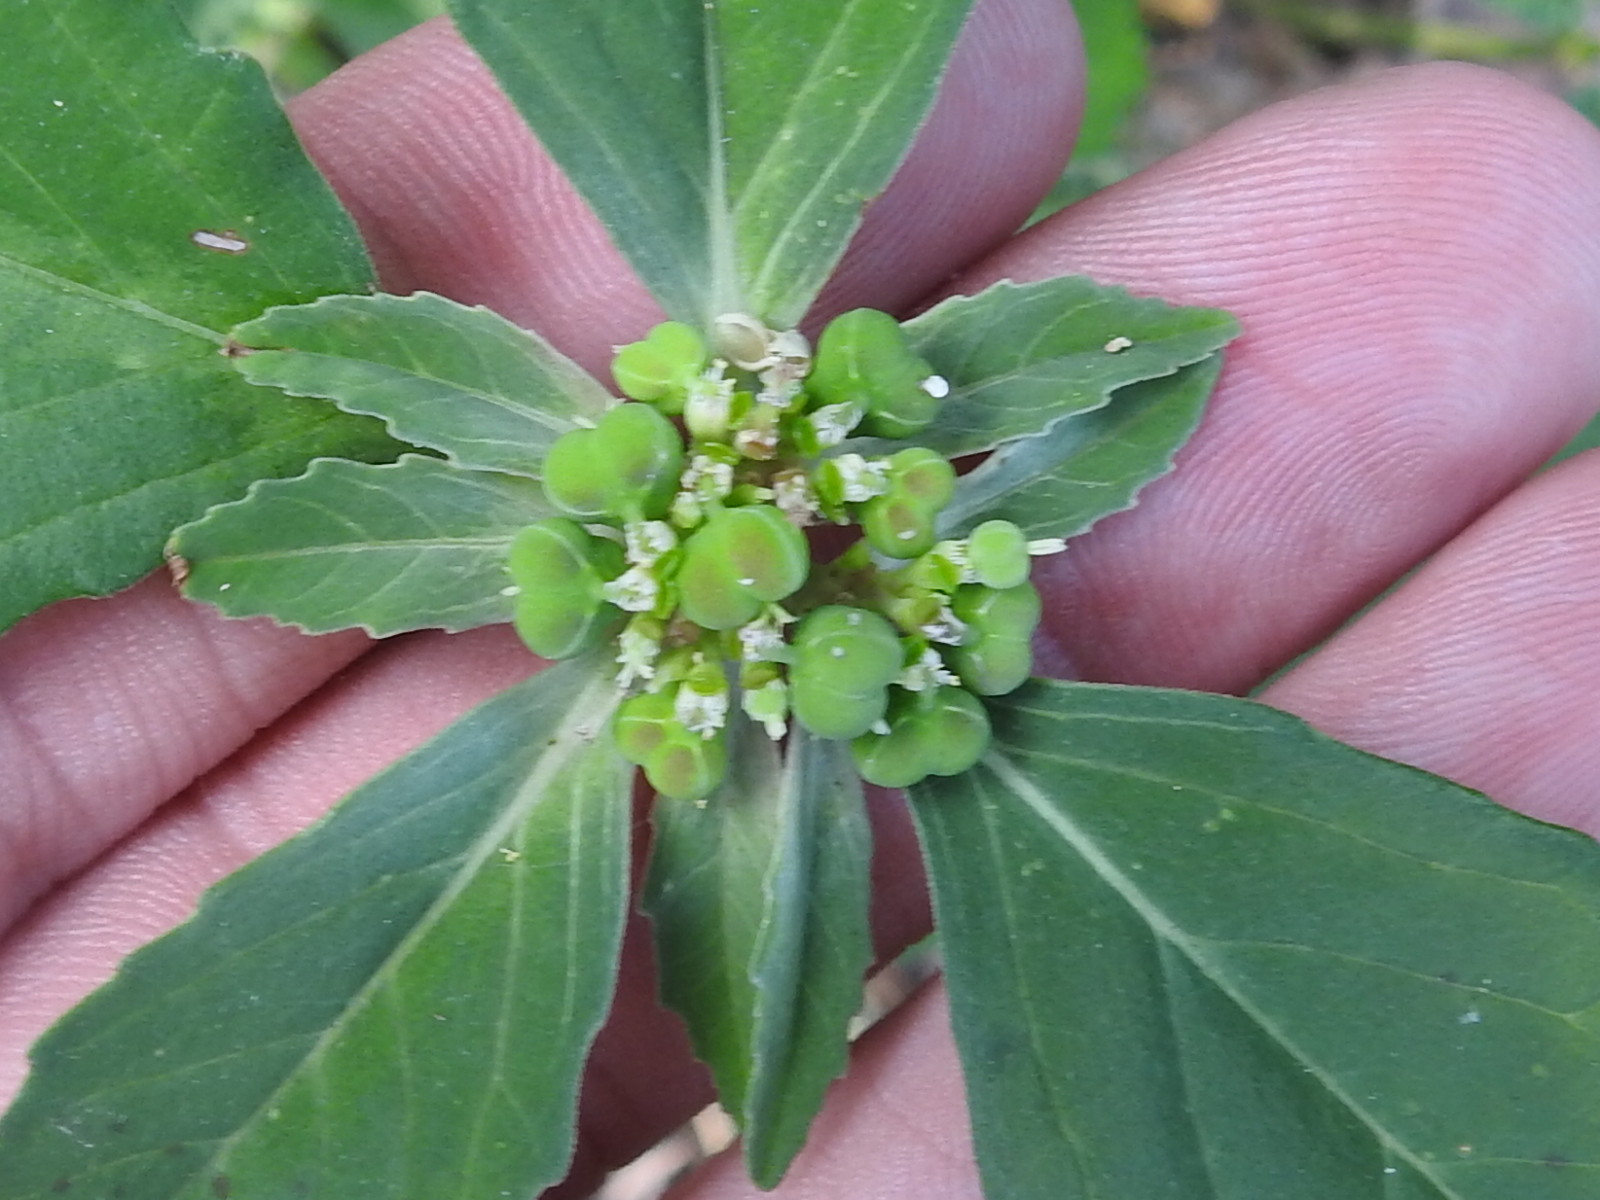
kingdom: Plantae
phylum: Tracheophyta
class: Magnoliopsida
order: Malpighiales
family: Euphorbiaceae
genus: Euphorbia
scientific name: Euphorbia dentata
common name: Dentate spurge
